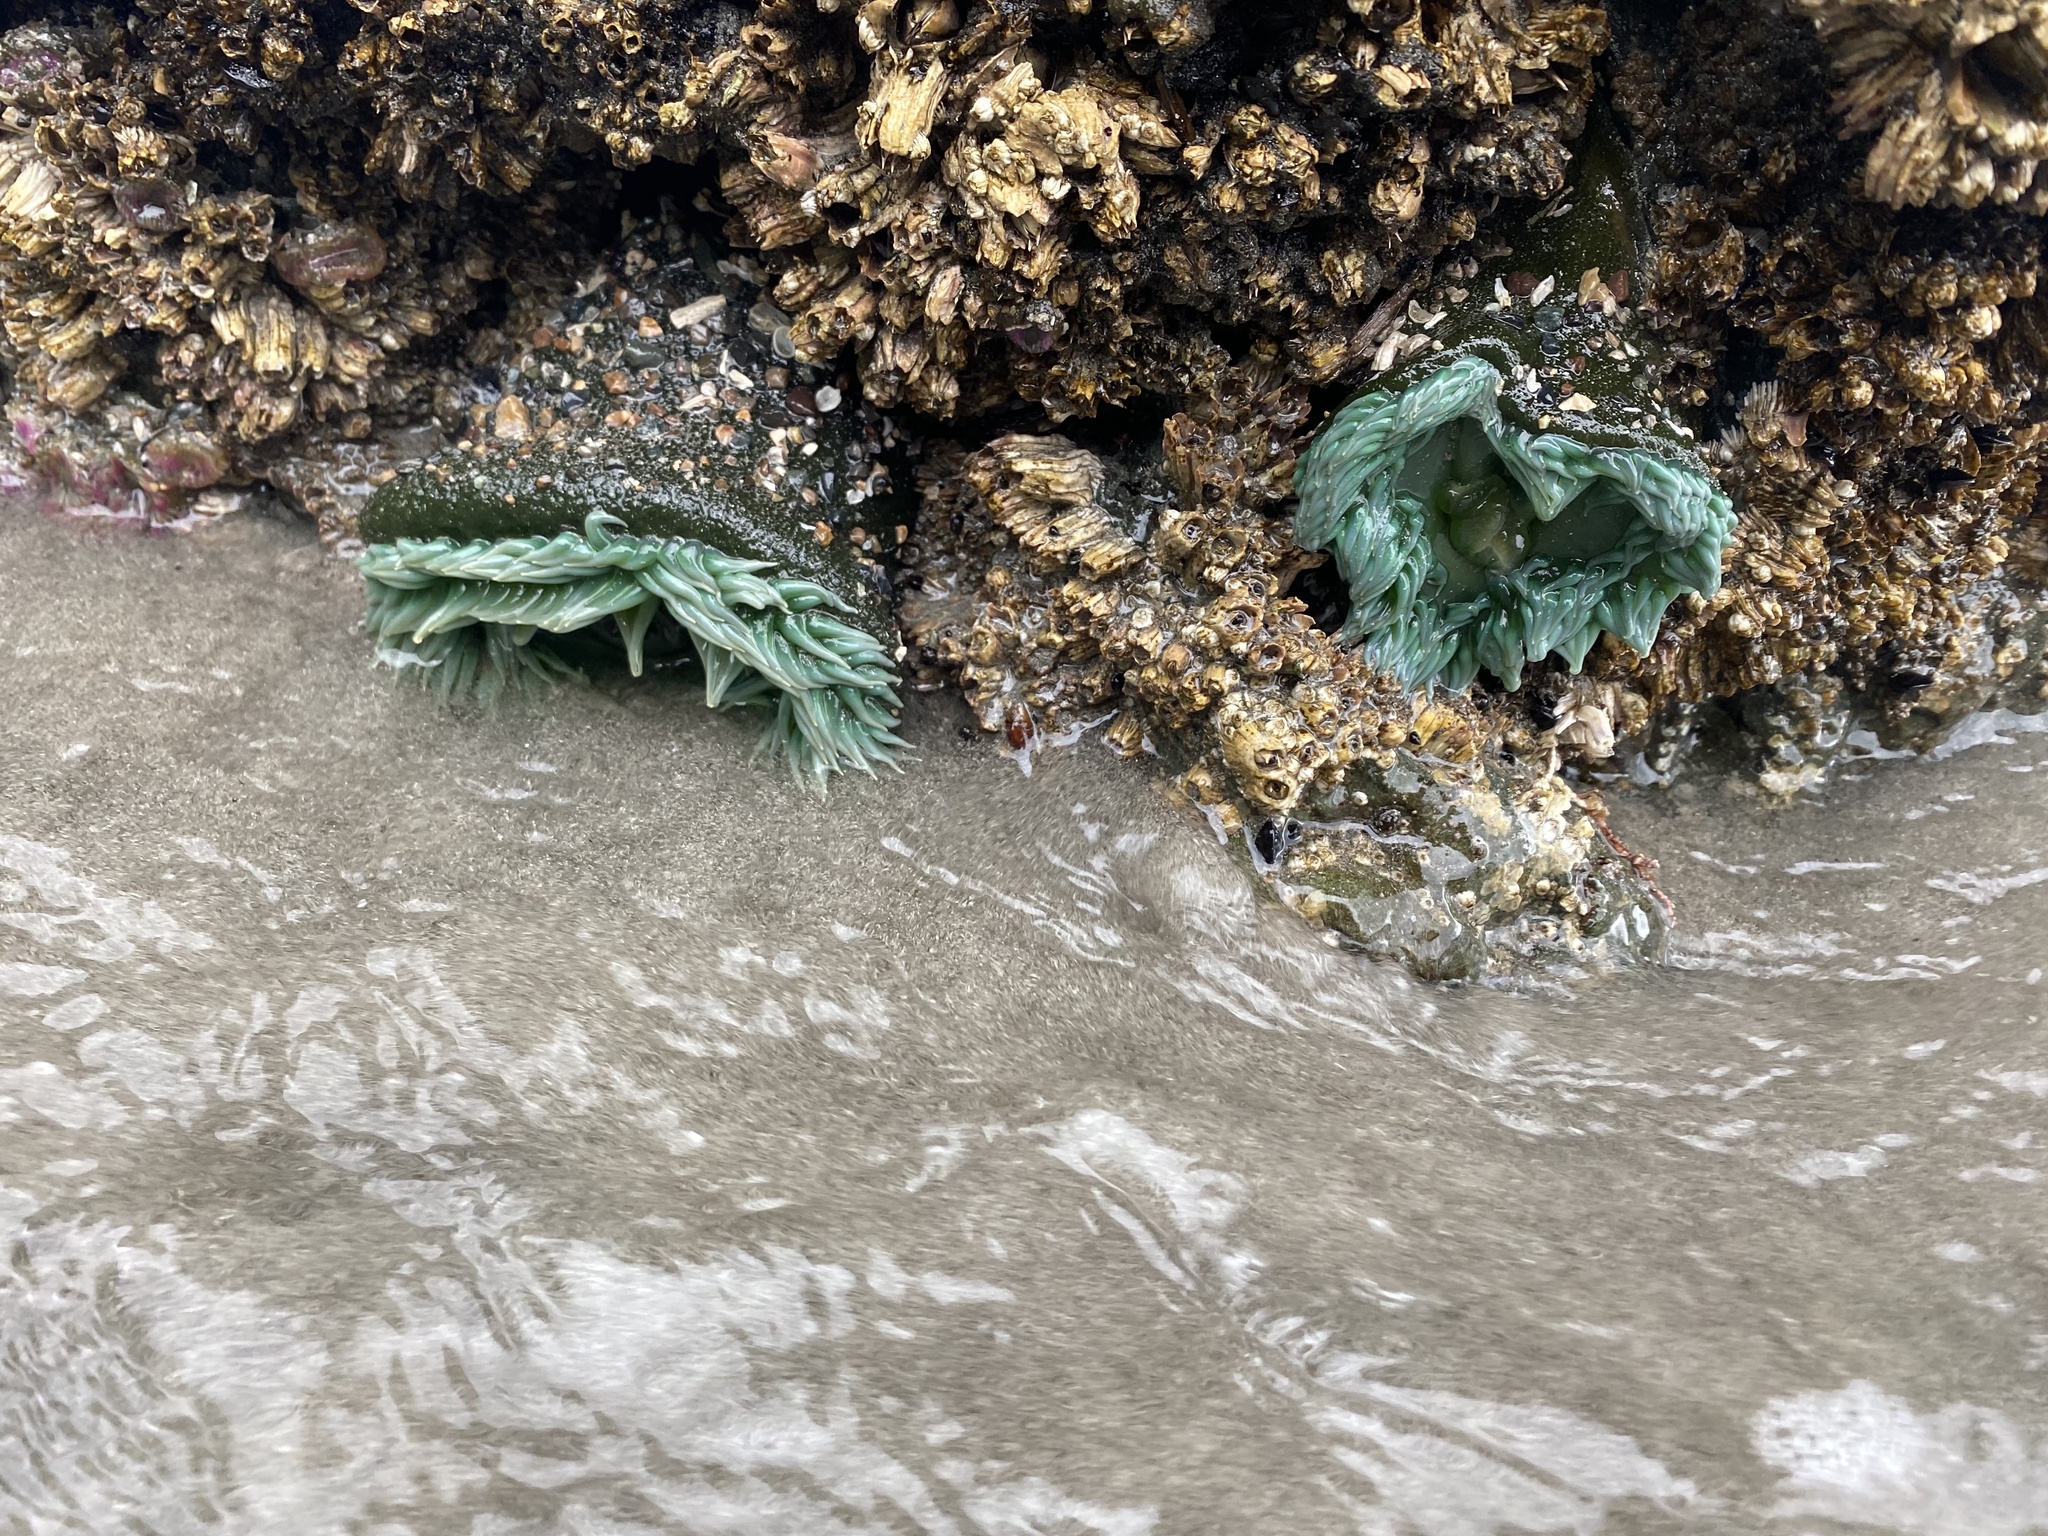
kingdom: Animalia
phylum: Cnidaria
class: Anthozoa
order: Actiniaria
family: Actiniidae
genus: Anthopleura
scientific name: Anthopleura xanthogrammica
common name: Giant green anemone
